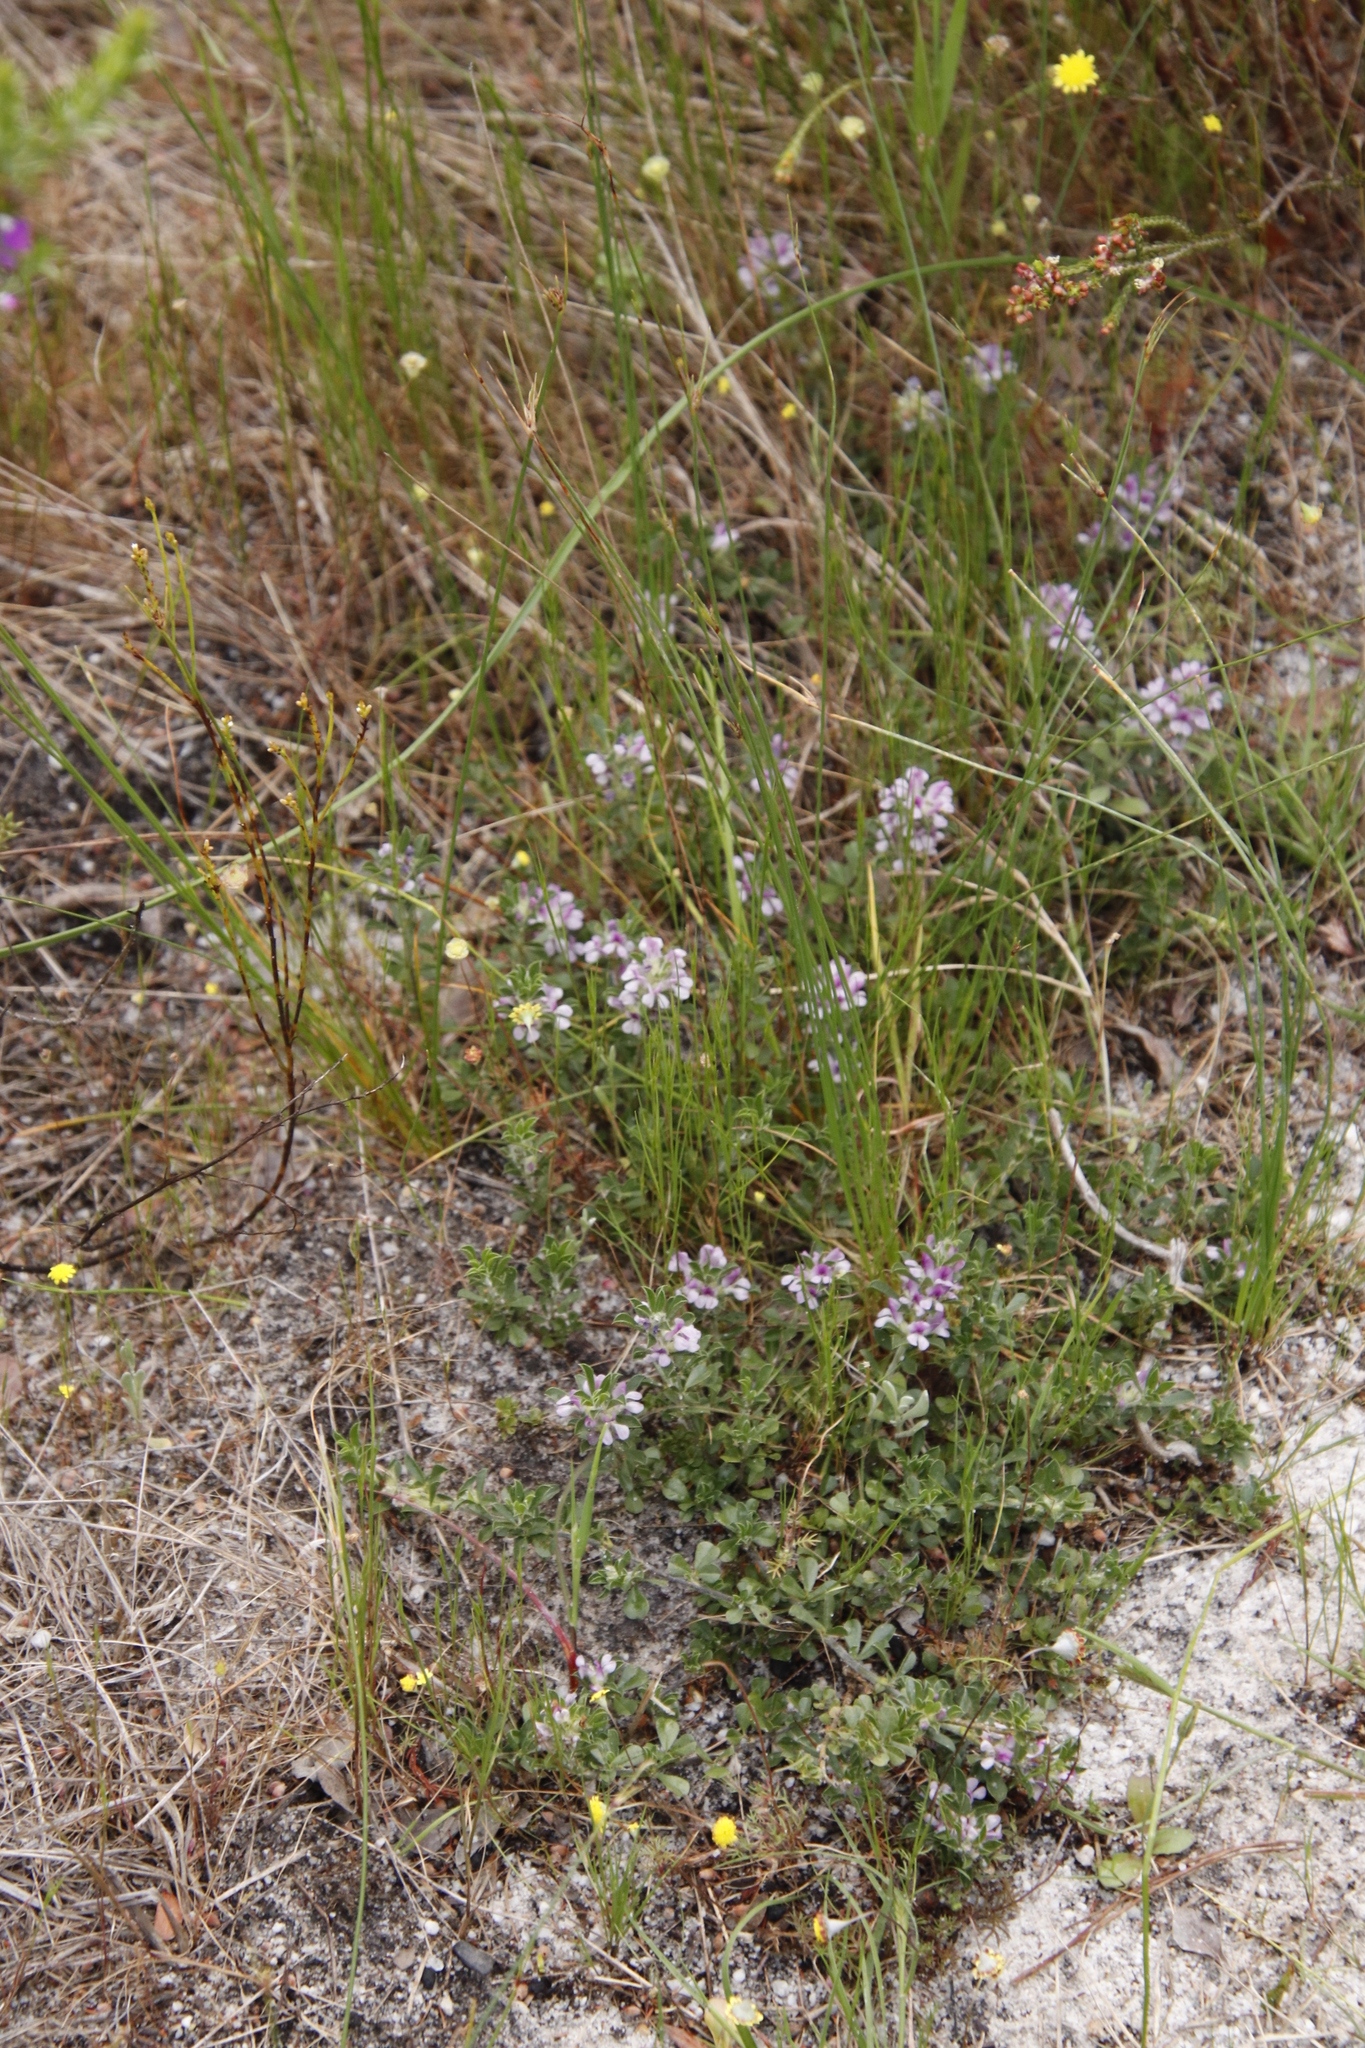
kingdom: Plantae
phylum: Tracheophyta
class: Magnoliopsida
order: Fabales
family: Fabaceae
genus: Psoralea
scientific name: Psoralea
